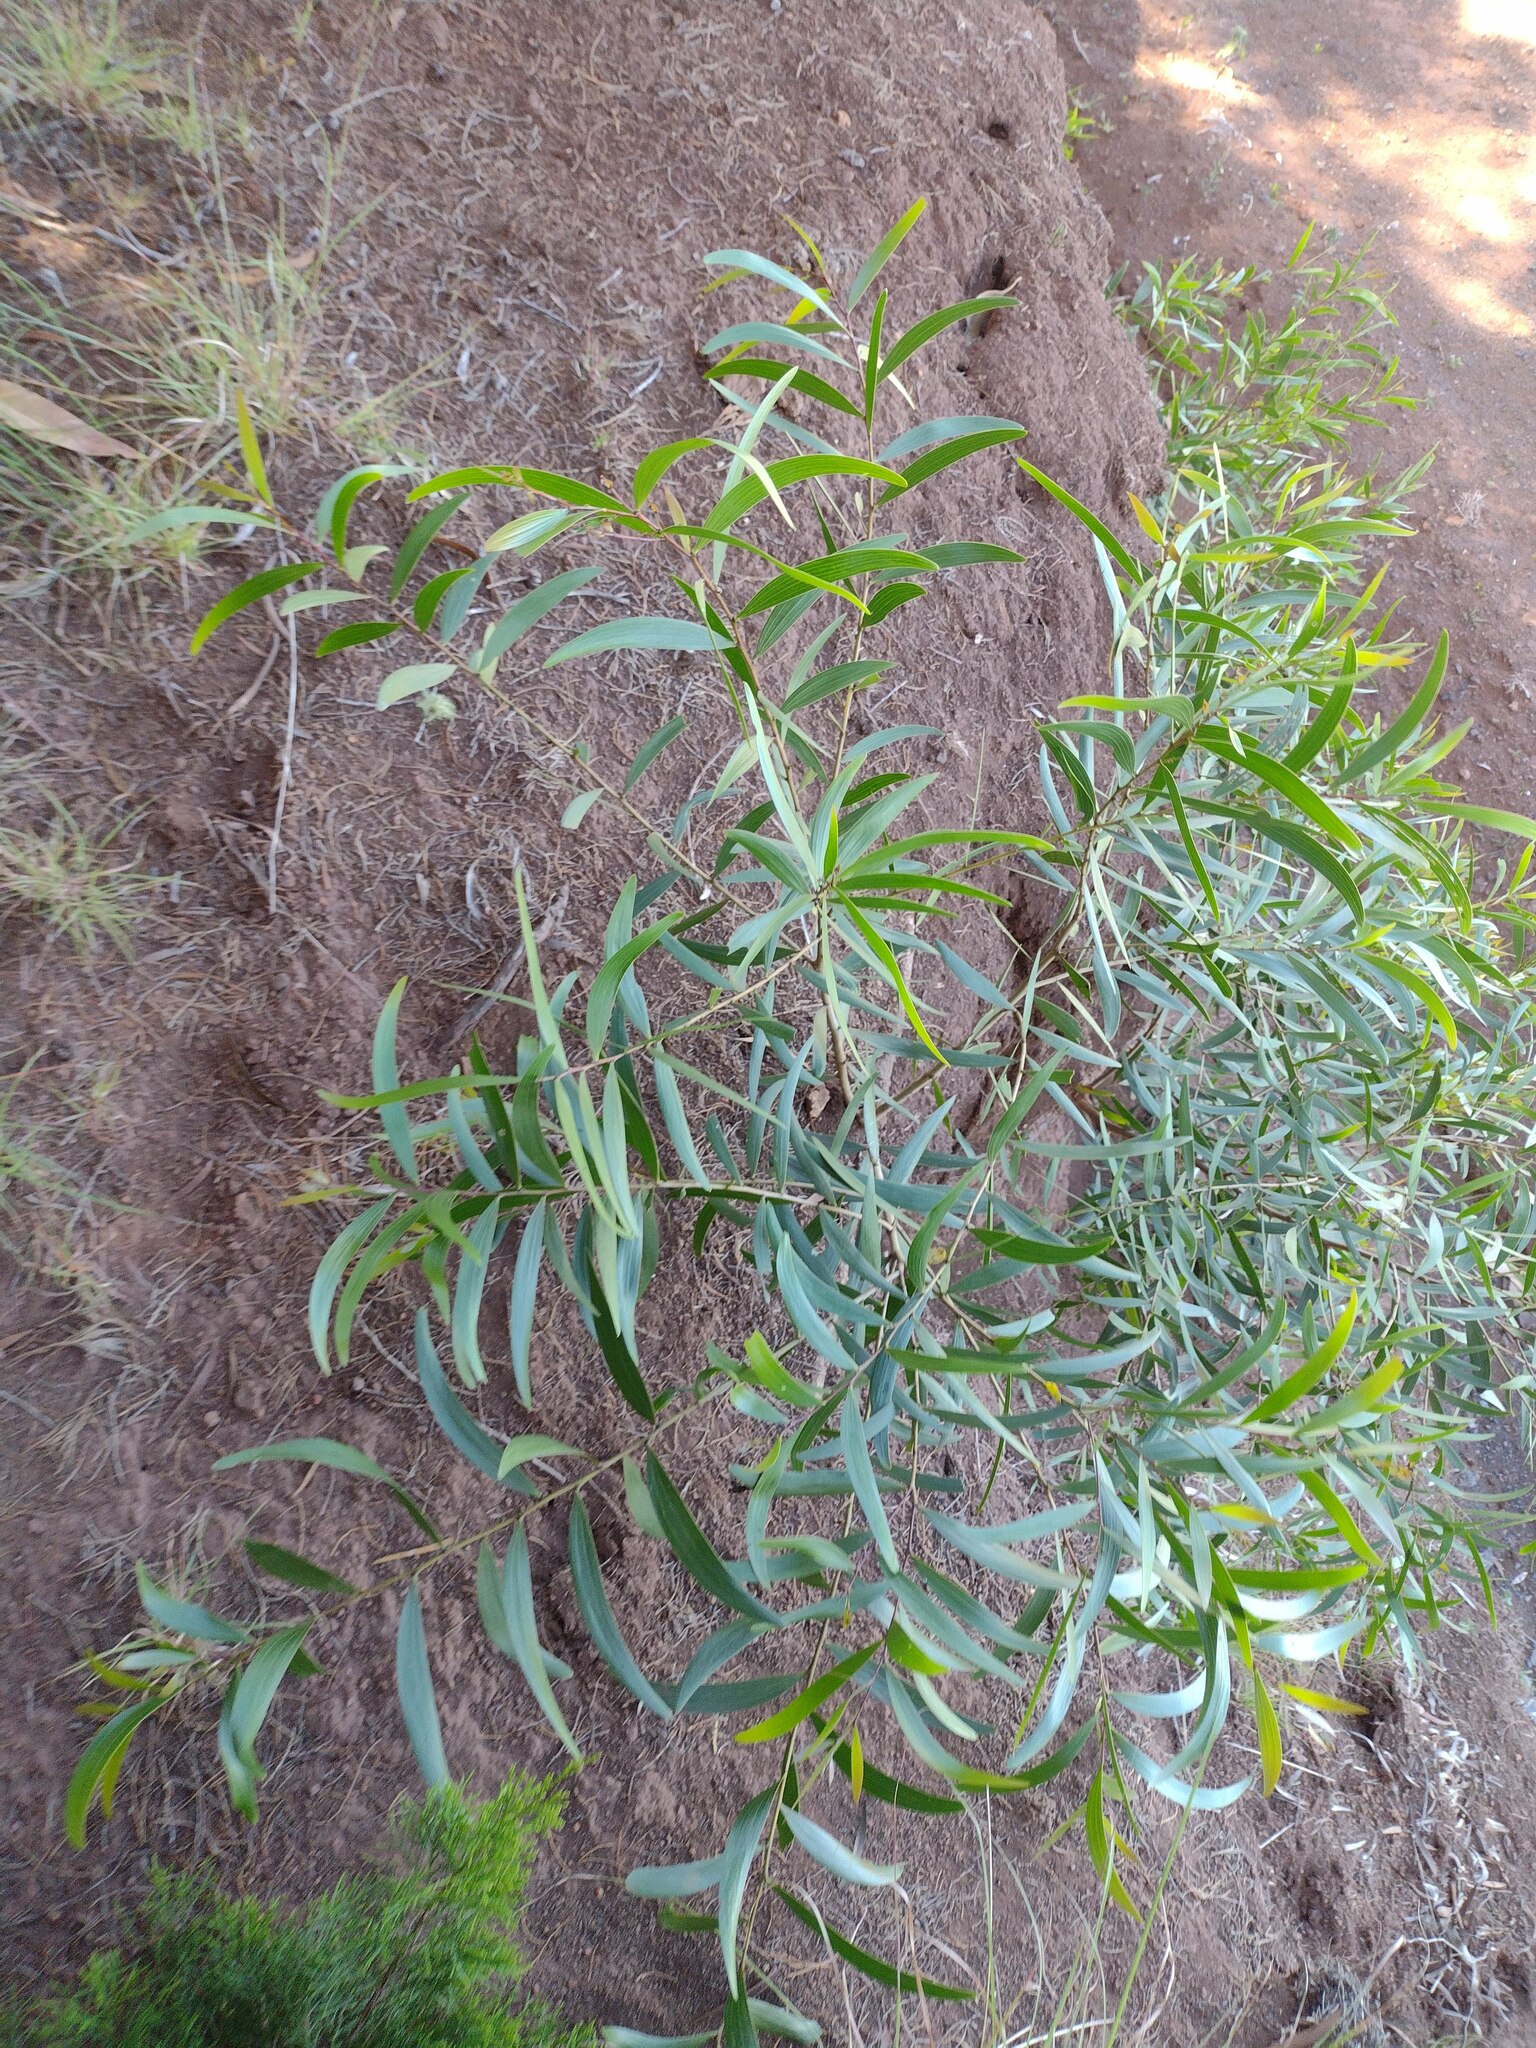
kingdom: Plantae
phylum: Tracheophyta
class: Magnoliopsida
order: Fabales
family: Fabaceae
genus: Acacia
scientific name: Acacia confusa
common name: Formosan koa
